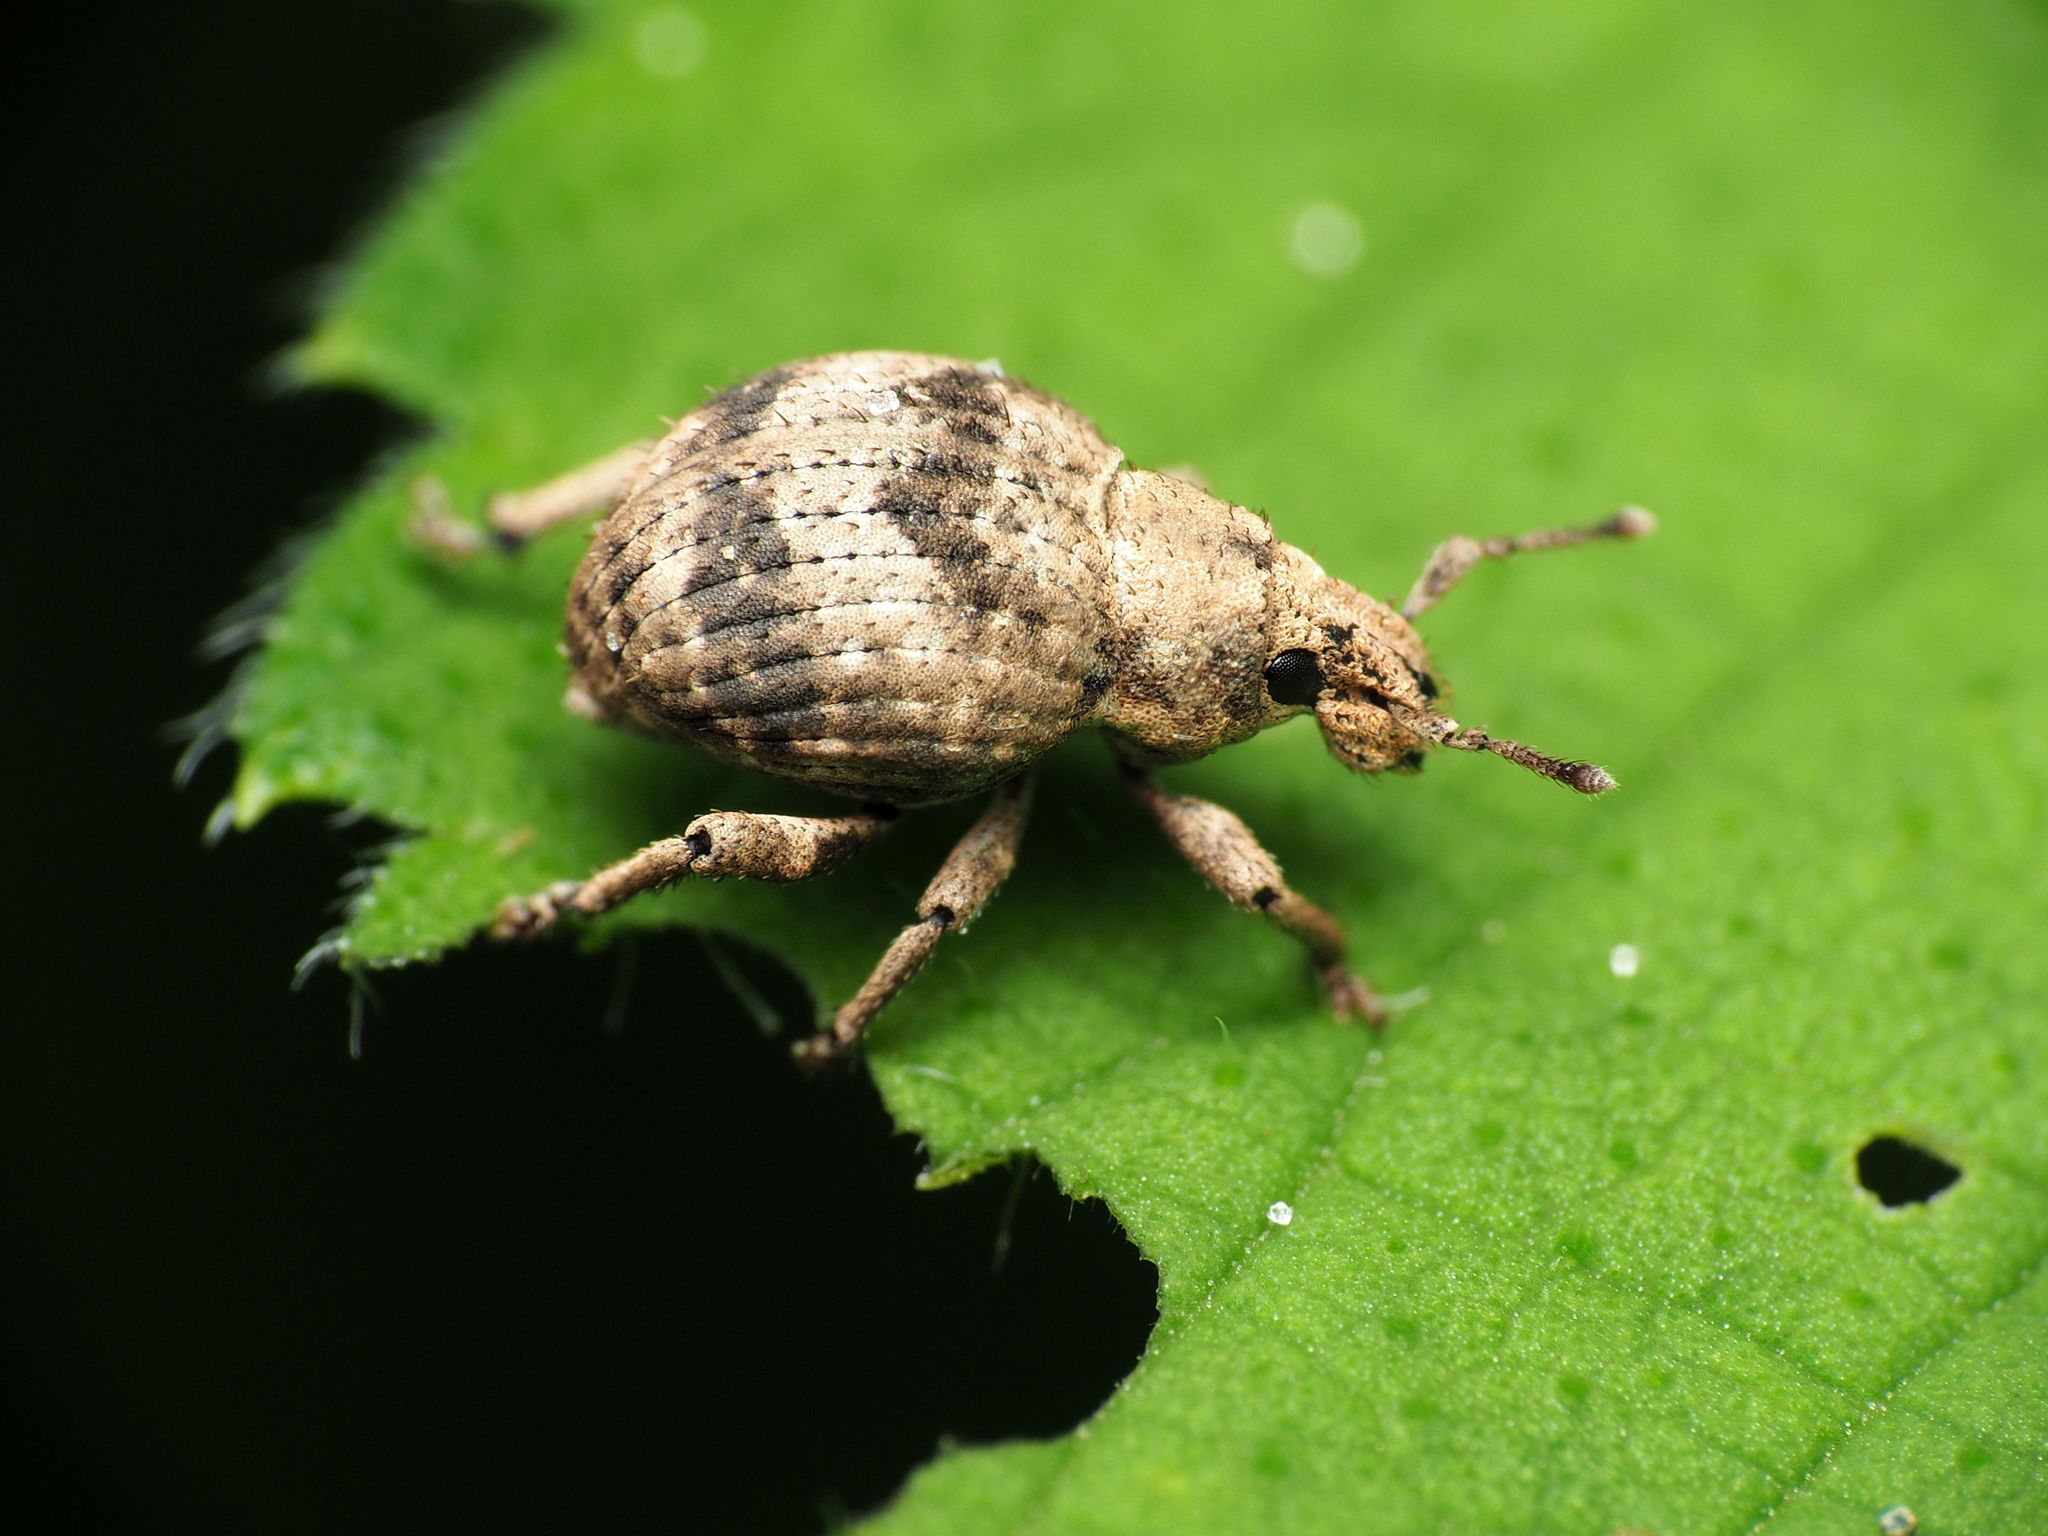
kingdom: Animalia
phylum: Arthropoda
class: Insecta
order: Coleoptera
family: Curculionidae
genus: Pseudocneorhinus
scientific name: Pseudocneorhinus bifasciatus
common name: Two-banded japanese weevil
